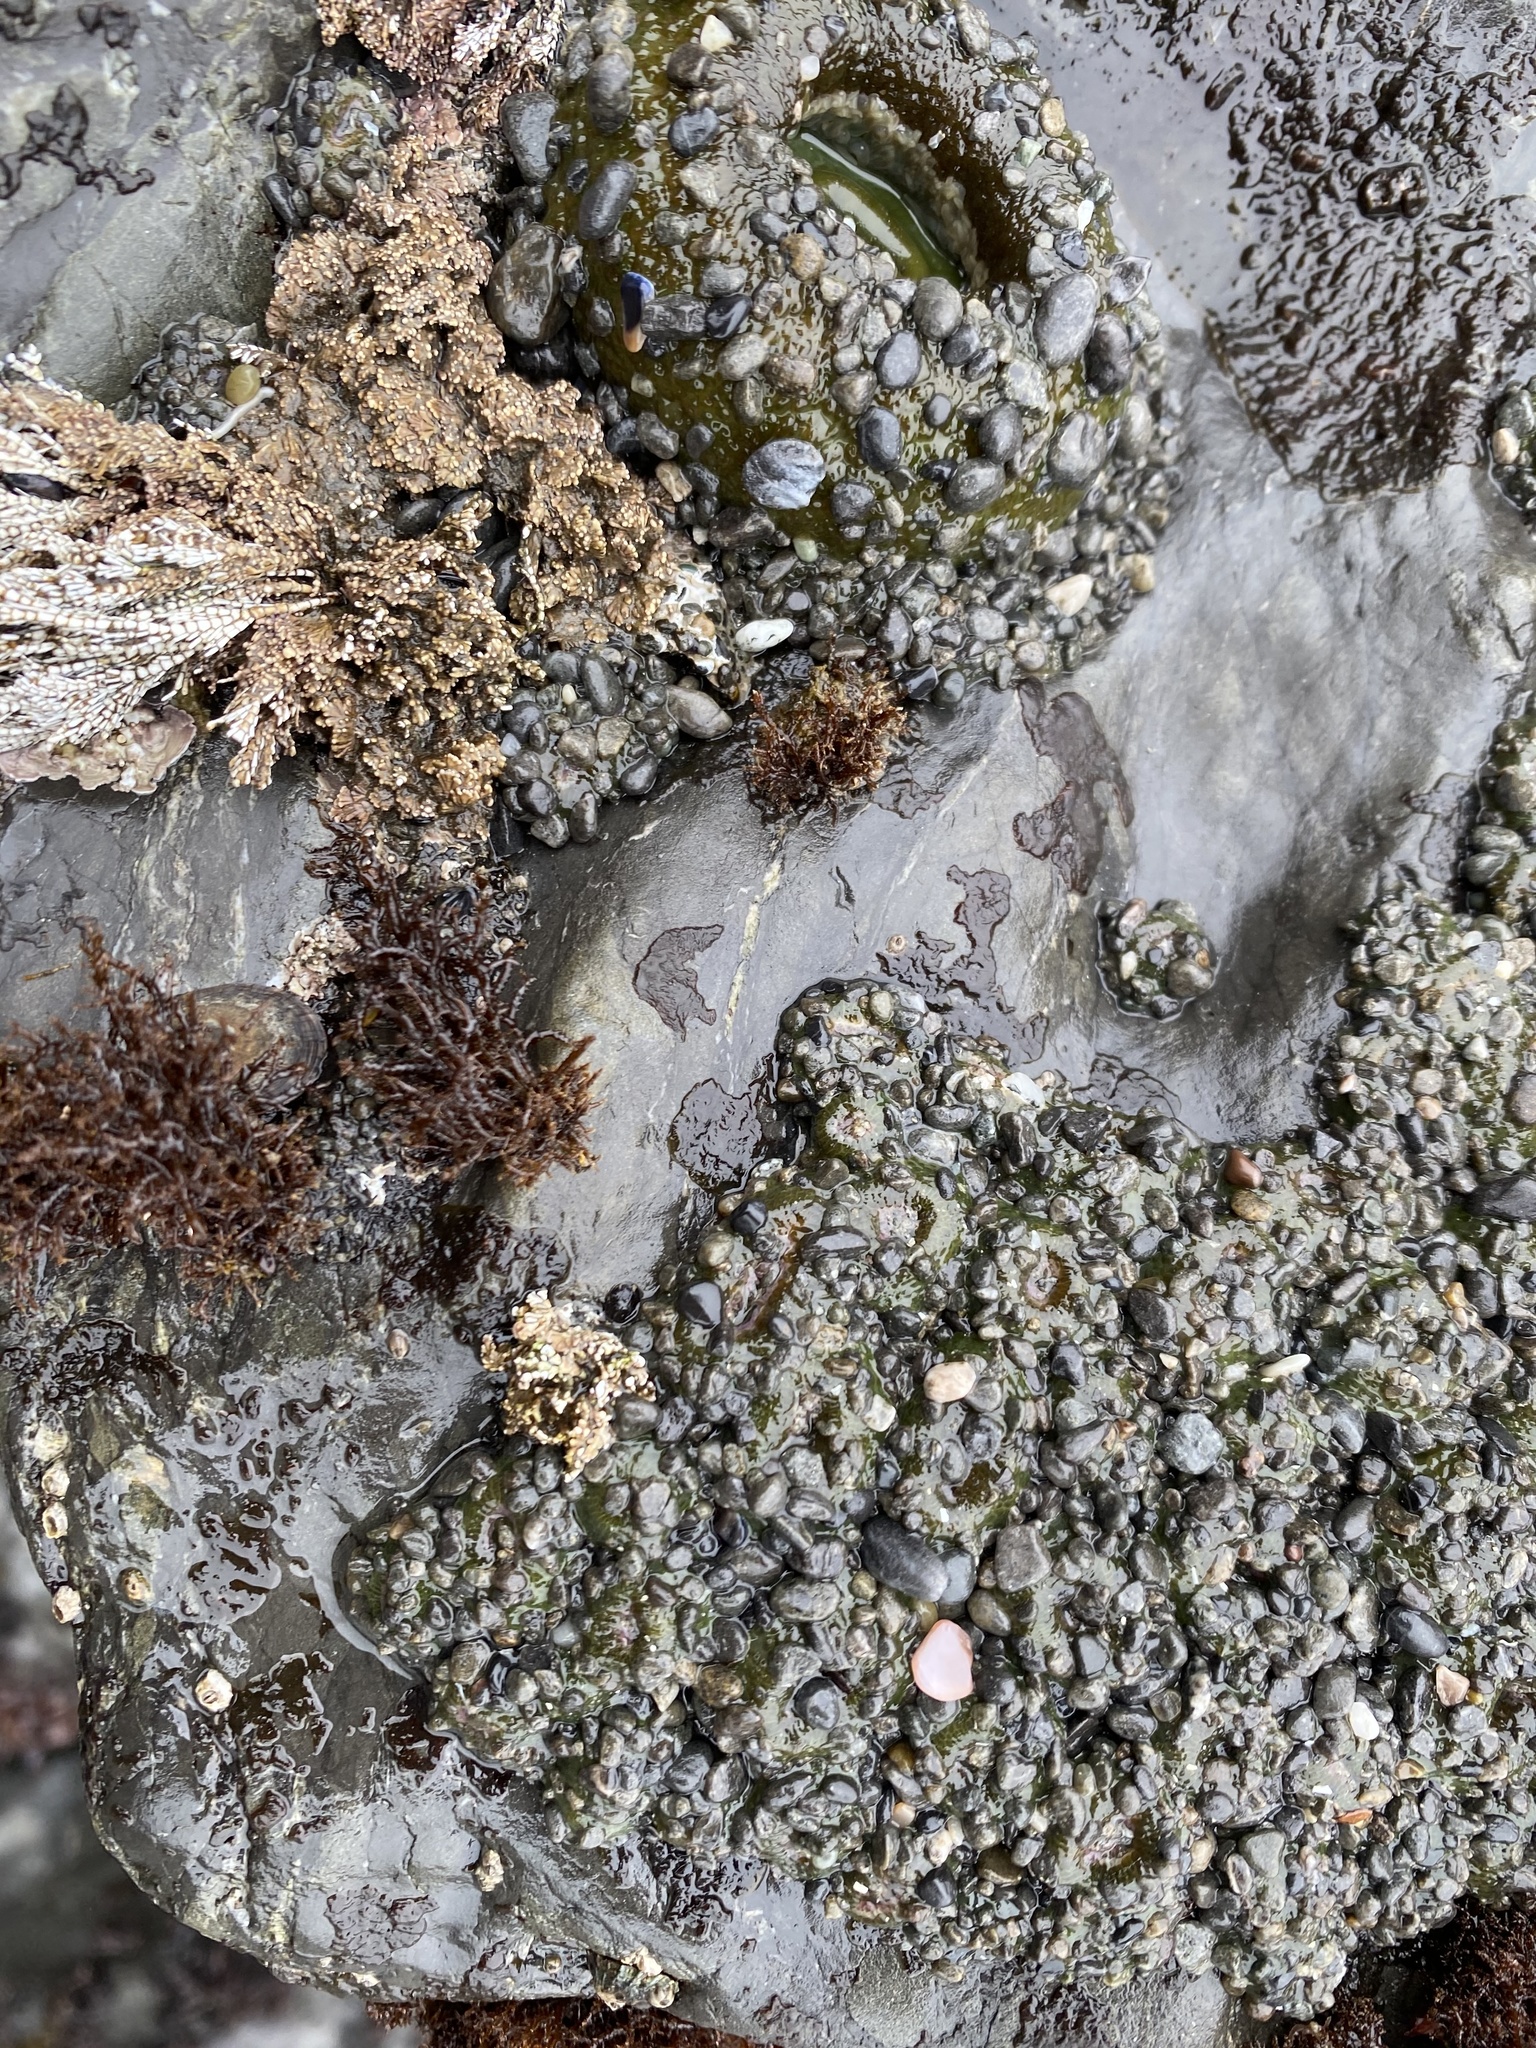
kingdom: Animalia
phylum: Cnidaria
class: Anthozoa
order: Actiniaria
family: Actiniidae
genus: Anthopleura
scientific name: Anthopleura elegantissima
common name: Clonal anemone
